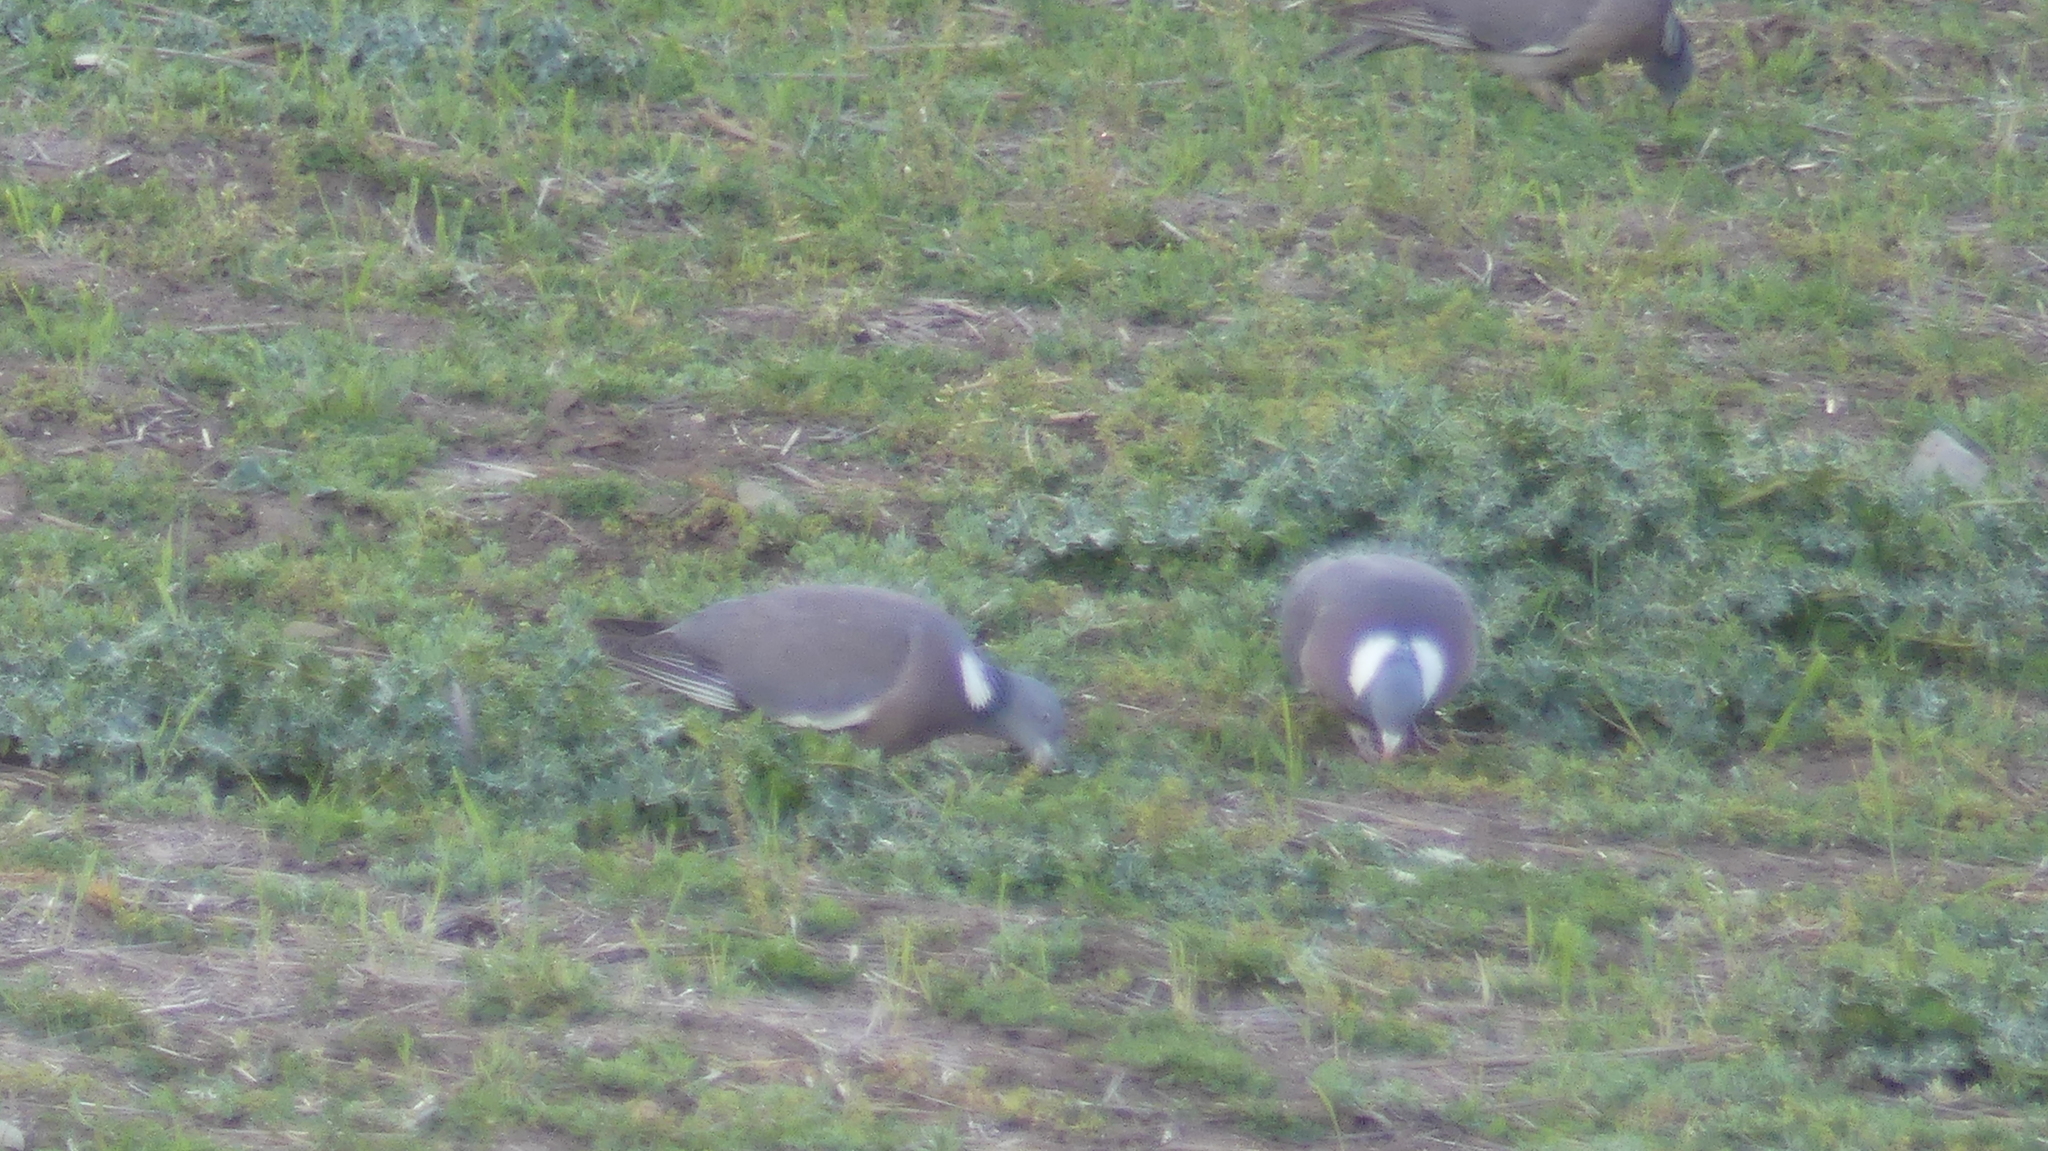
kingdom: Animalia
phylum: Chordata
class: Aves
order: Columbiformes
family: Columbidae
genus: Columba
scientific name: Columba palumbus
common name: Common wood pigeon
